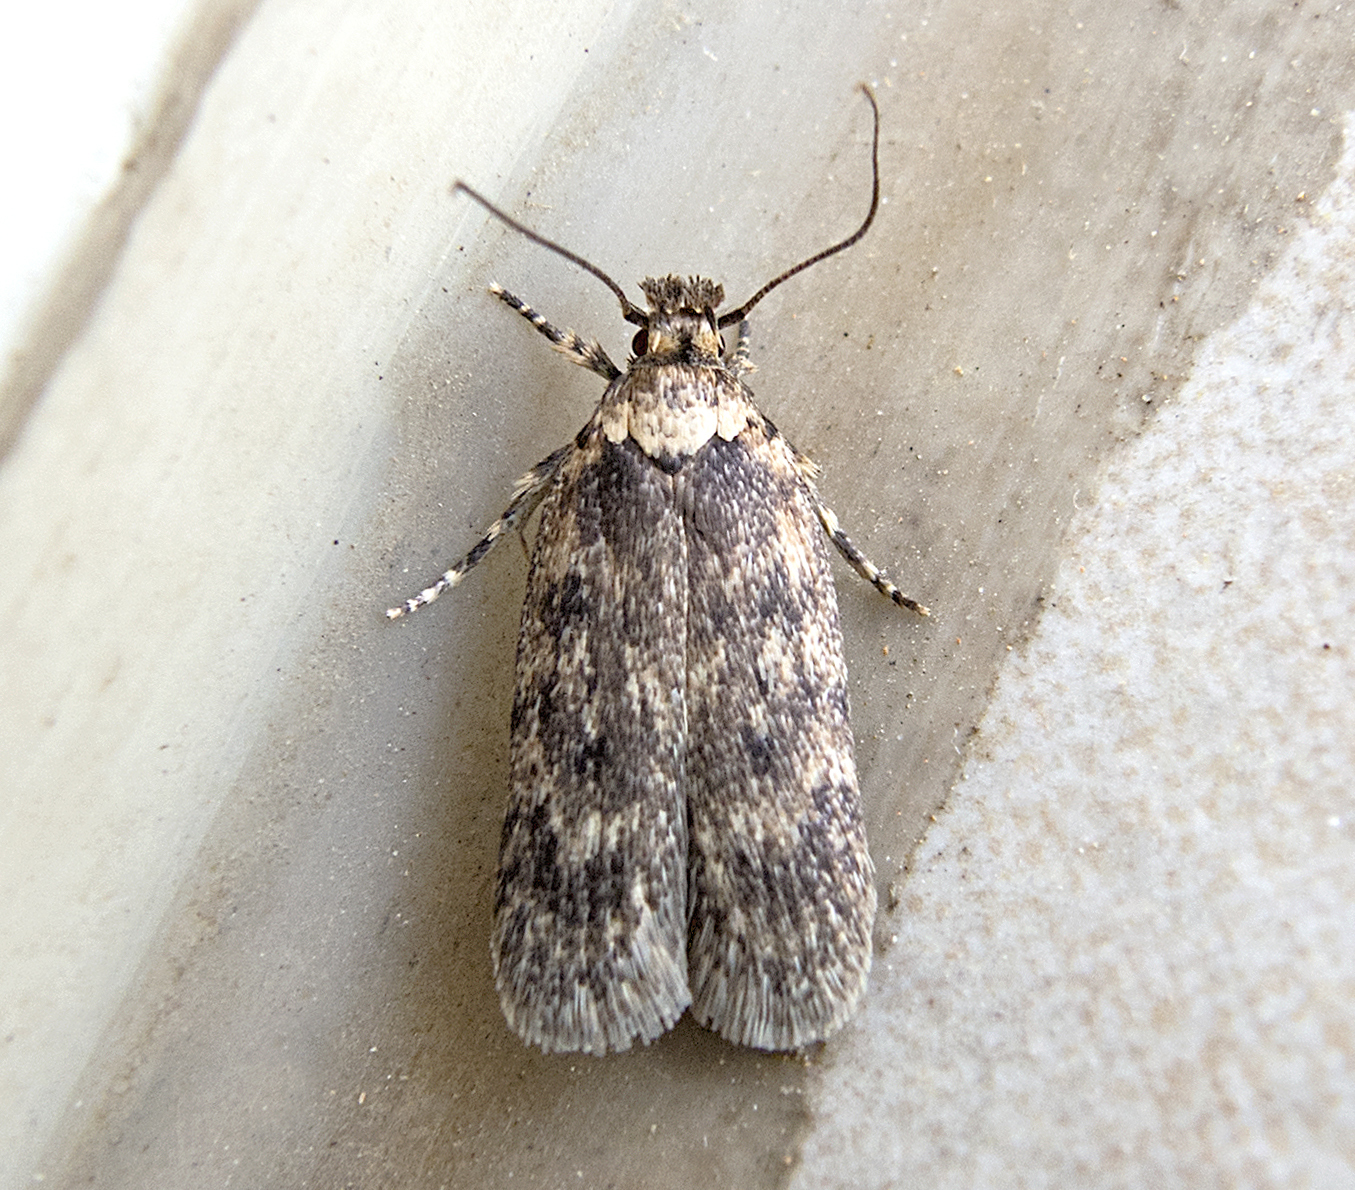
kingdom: Animalia
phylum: Arthropoda
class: Insecta
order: Lepidoptera
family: Depressariidae
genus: Depressaria
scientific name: Depressaria ululana
